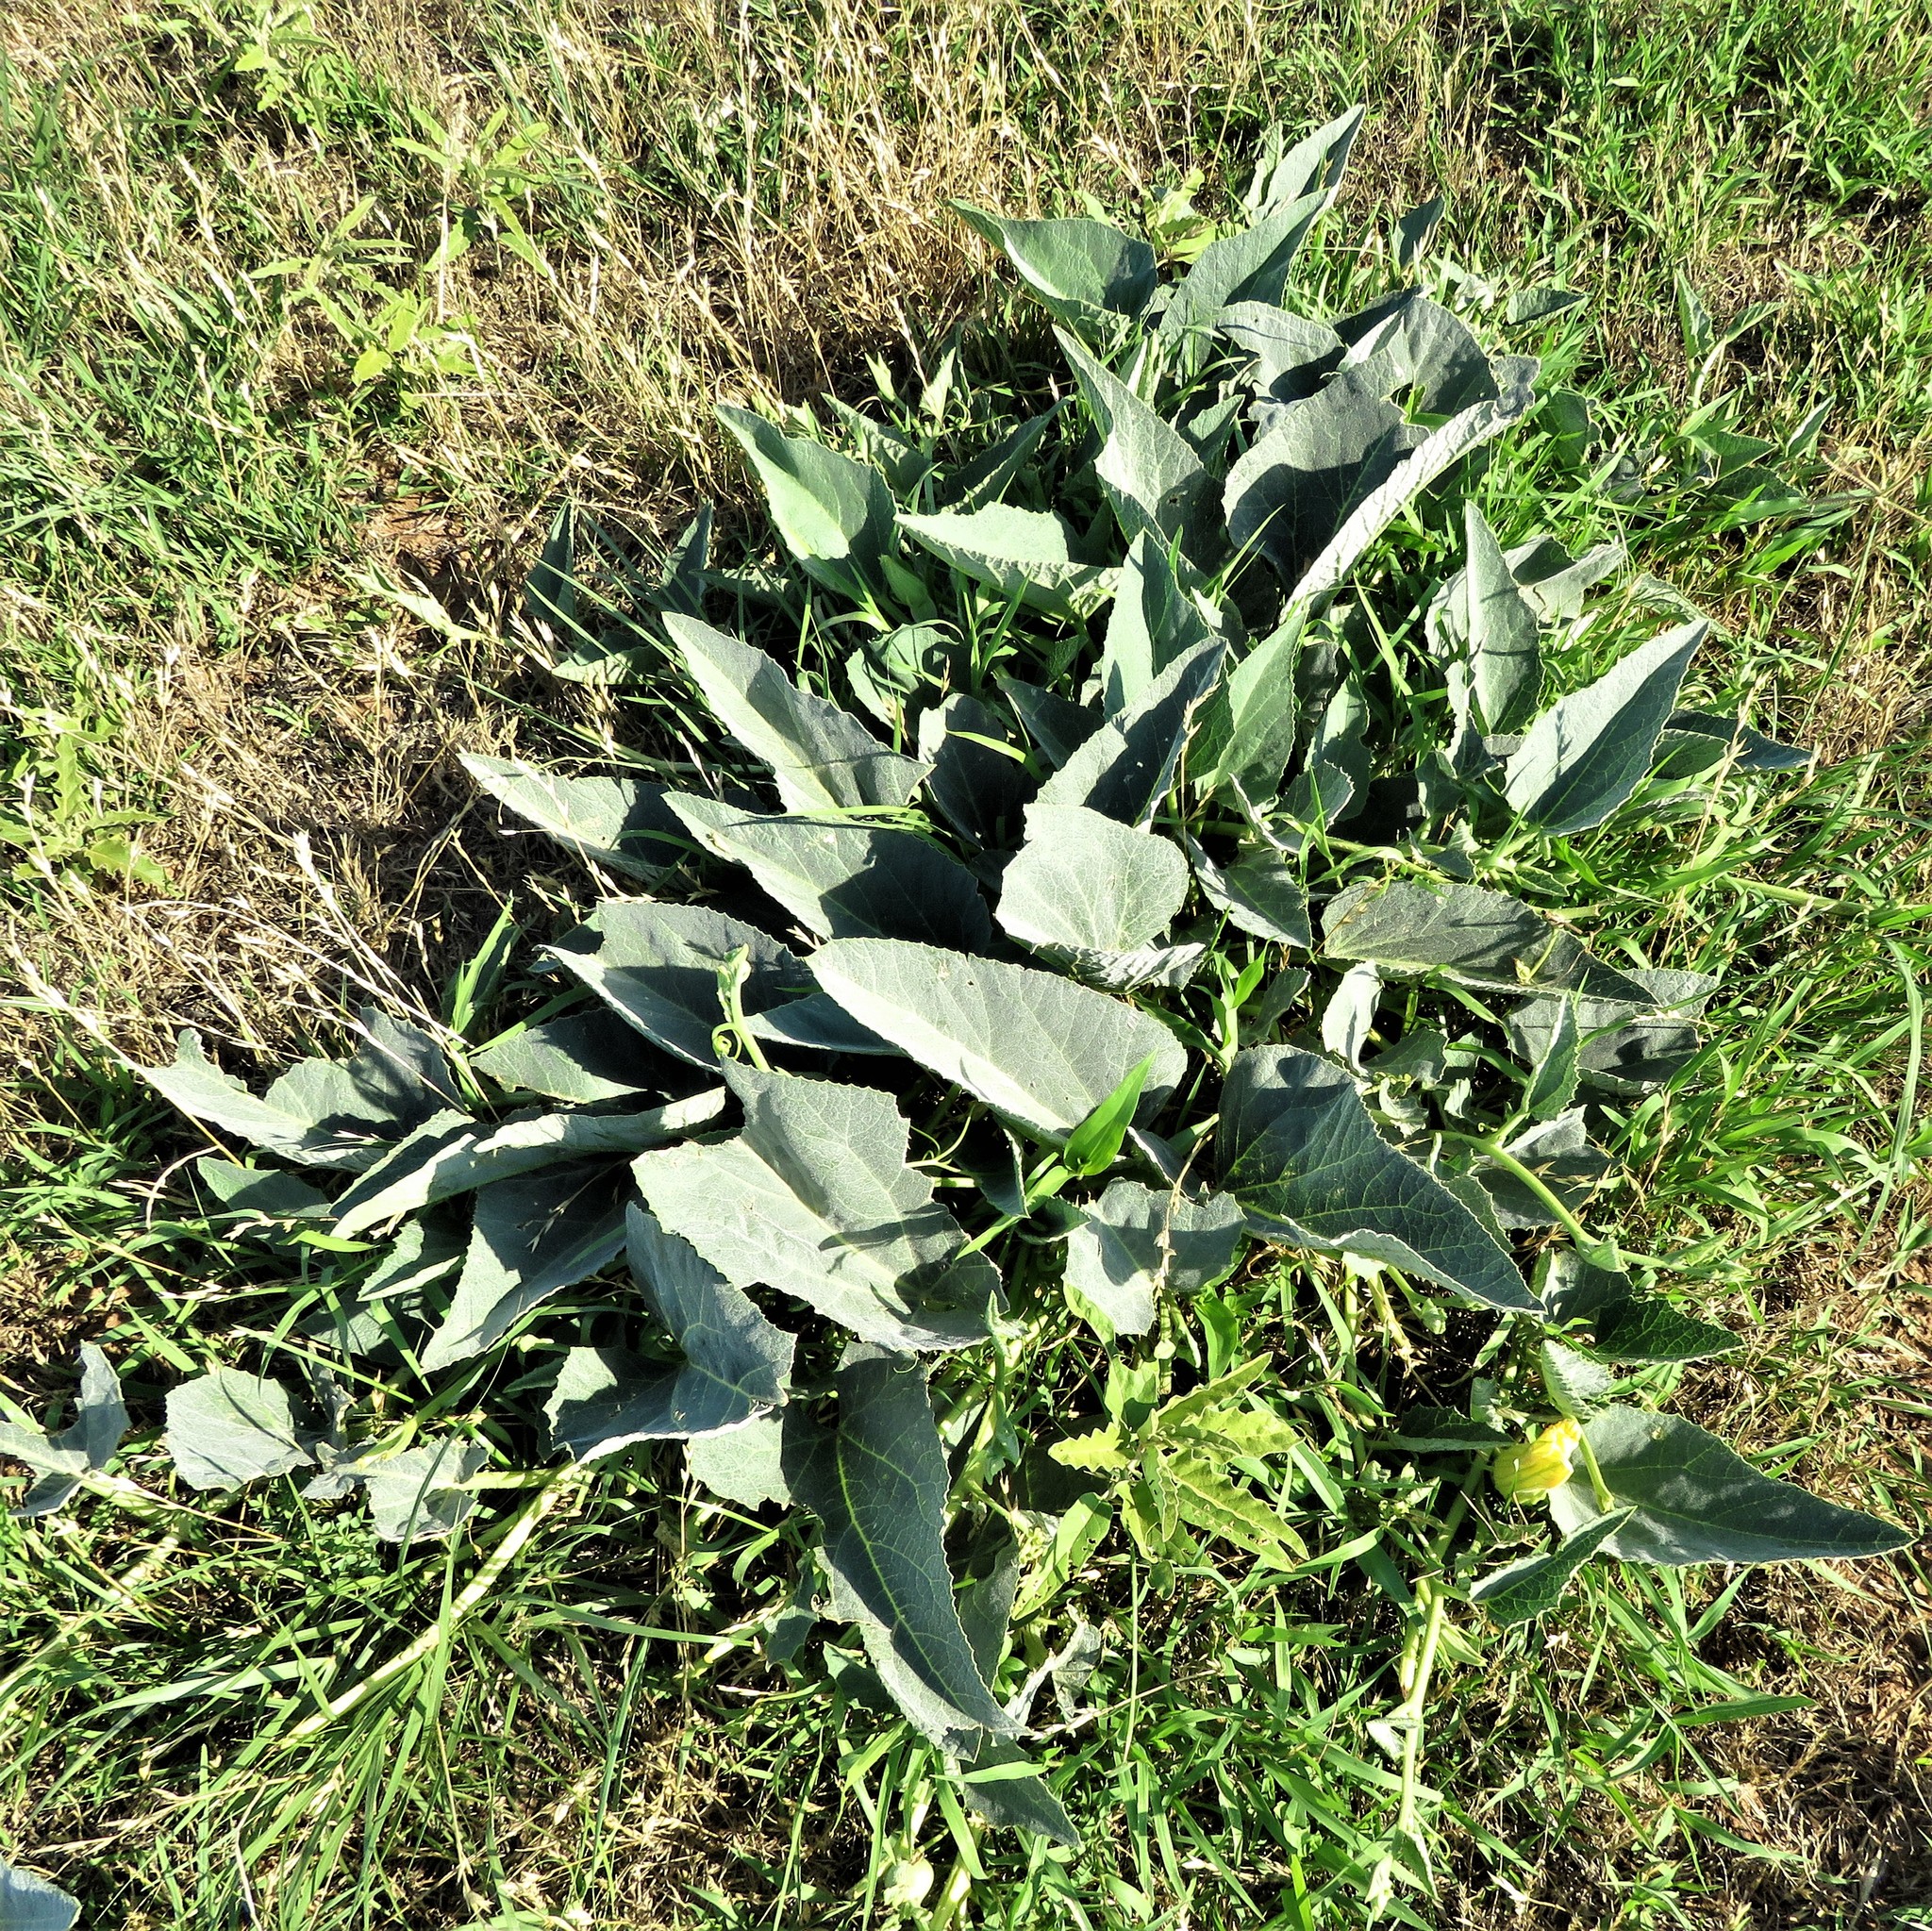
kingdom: Plantae
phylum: Tracheophyta
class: Magnoliopsida
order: Cucurbitales
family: Cucurbitaceae
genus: Cucurbita
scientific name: Cucurbita foetidissima
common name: Buffalo gourd
